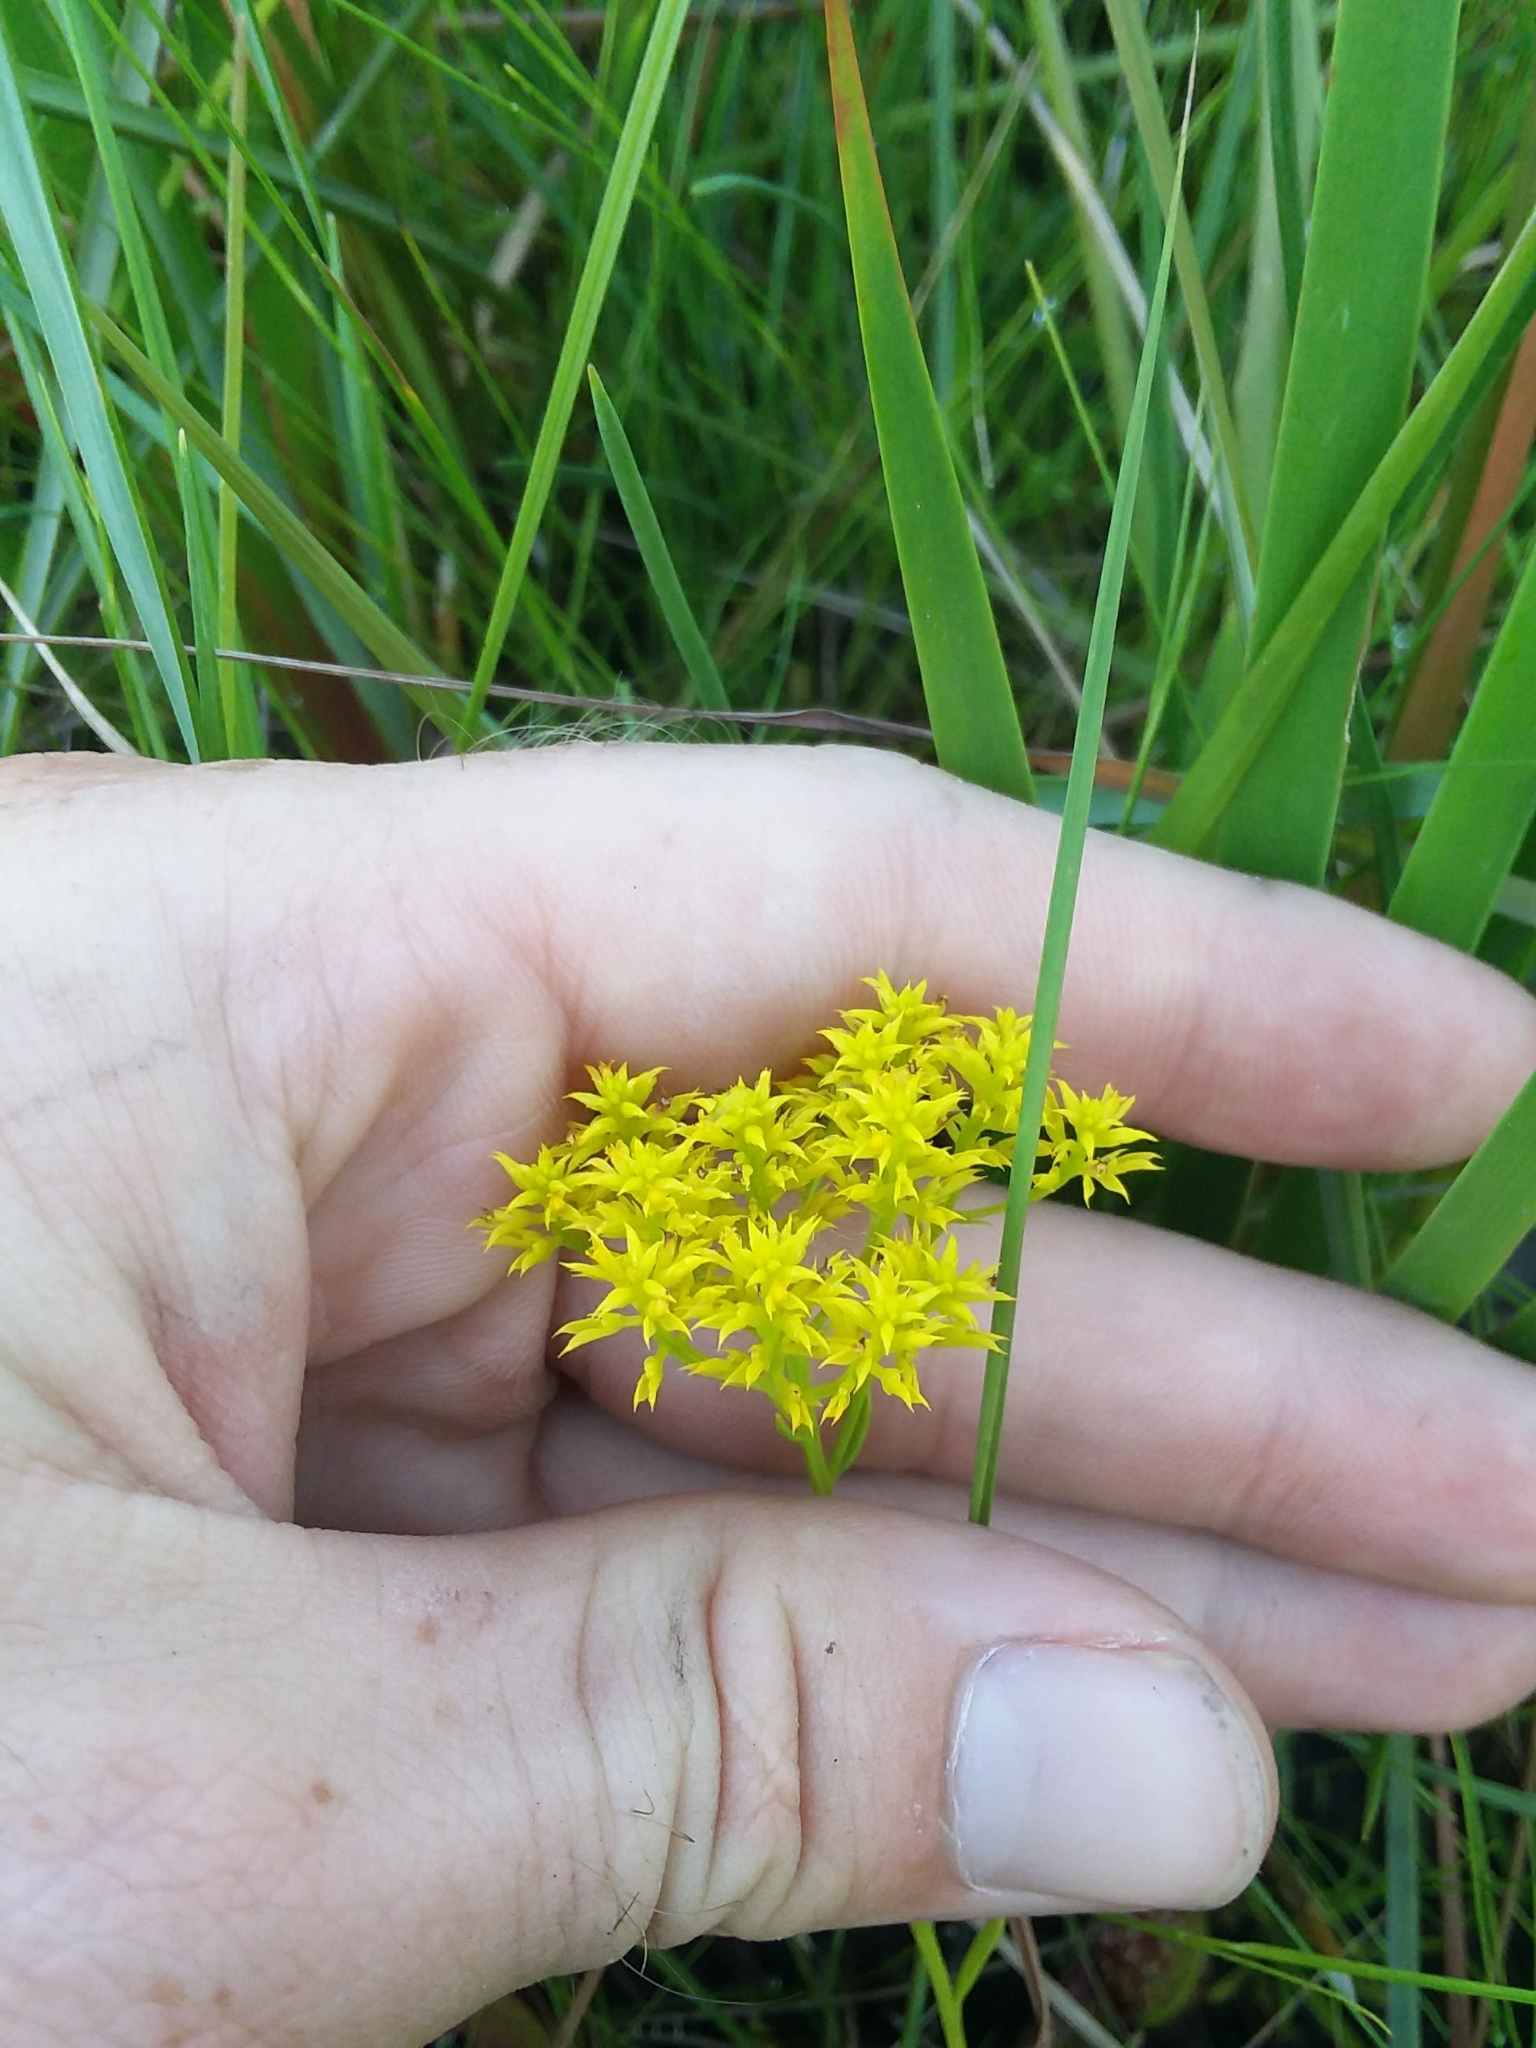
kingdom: Plantae
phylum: Tracheophyta
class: Magnoliopsida
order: Fabales
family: Polygalaceae
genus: Polygala
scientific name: Polygala ramosa
